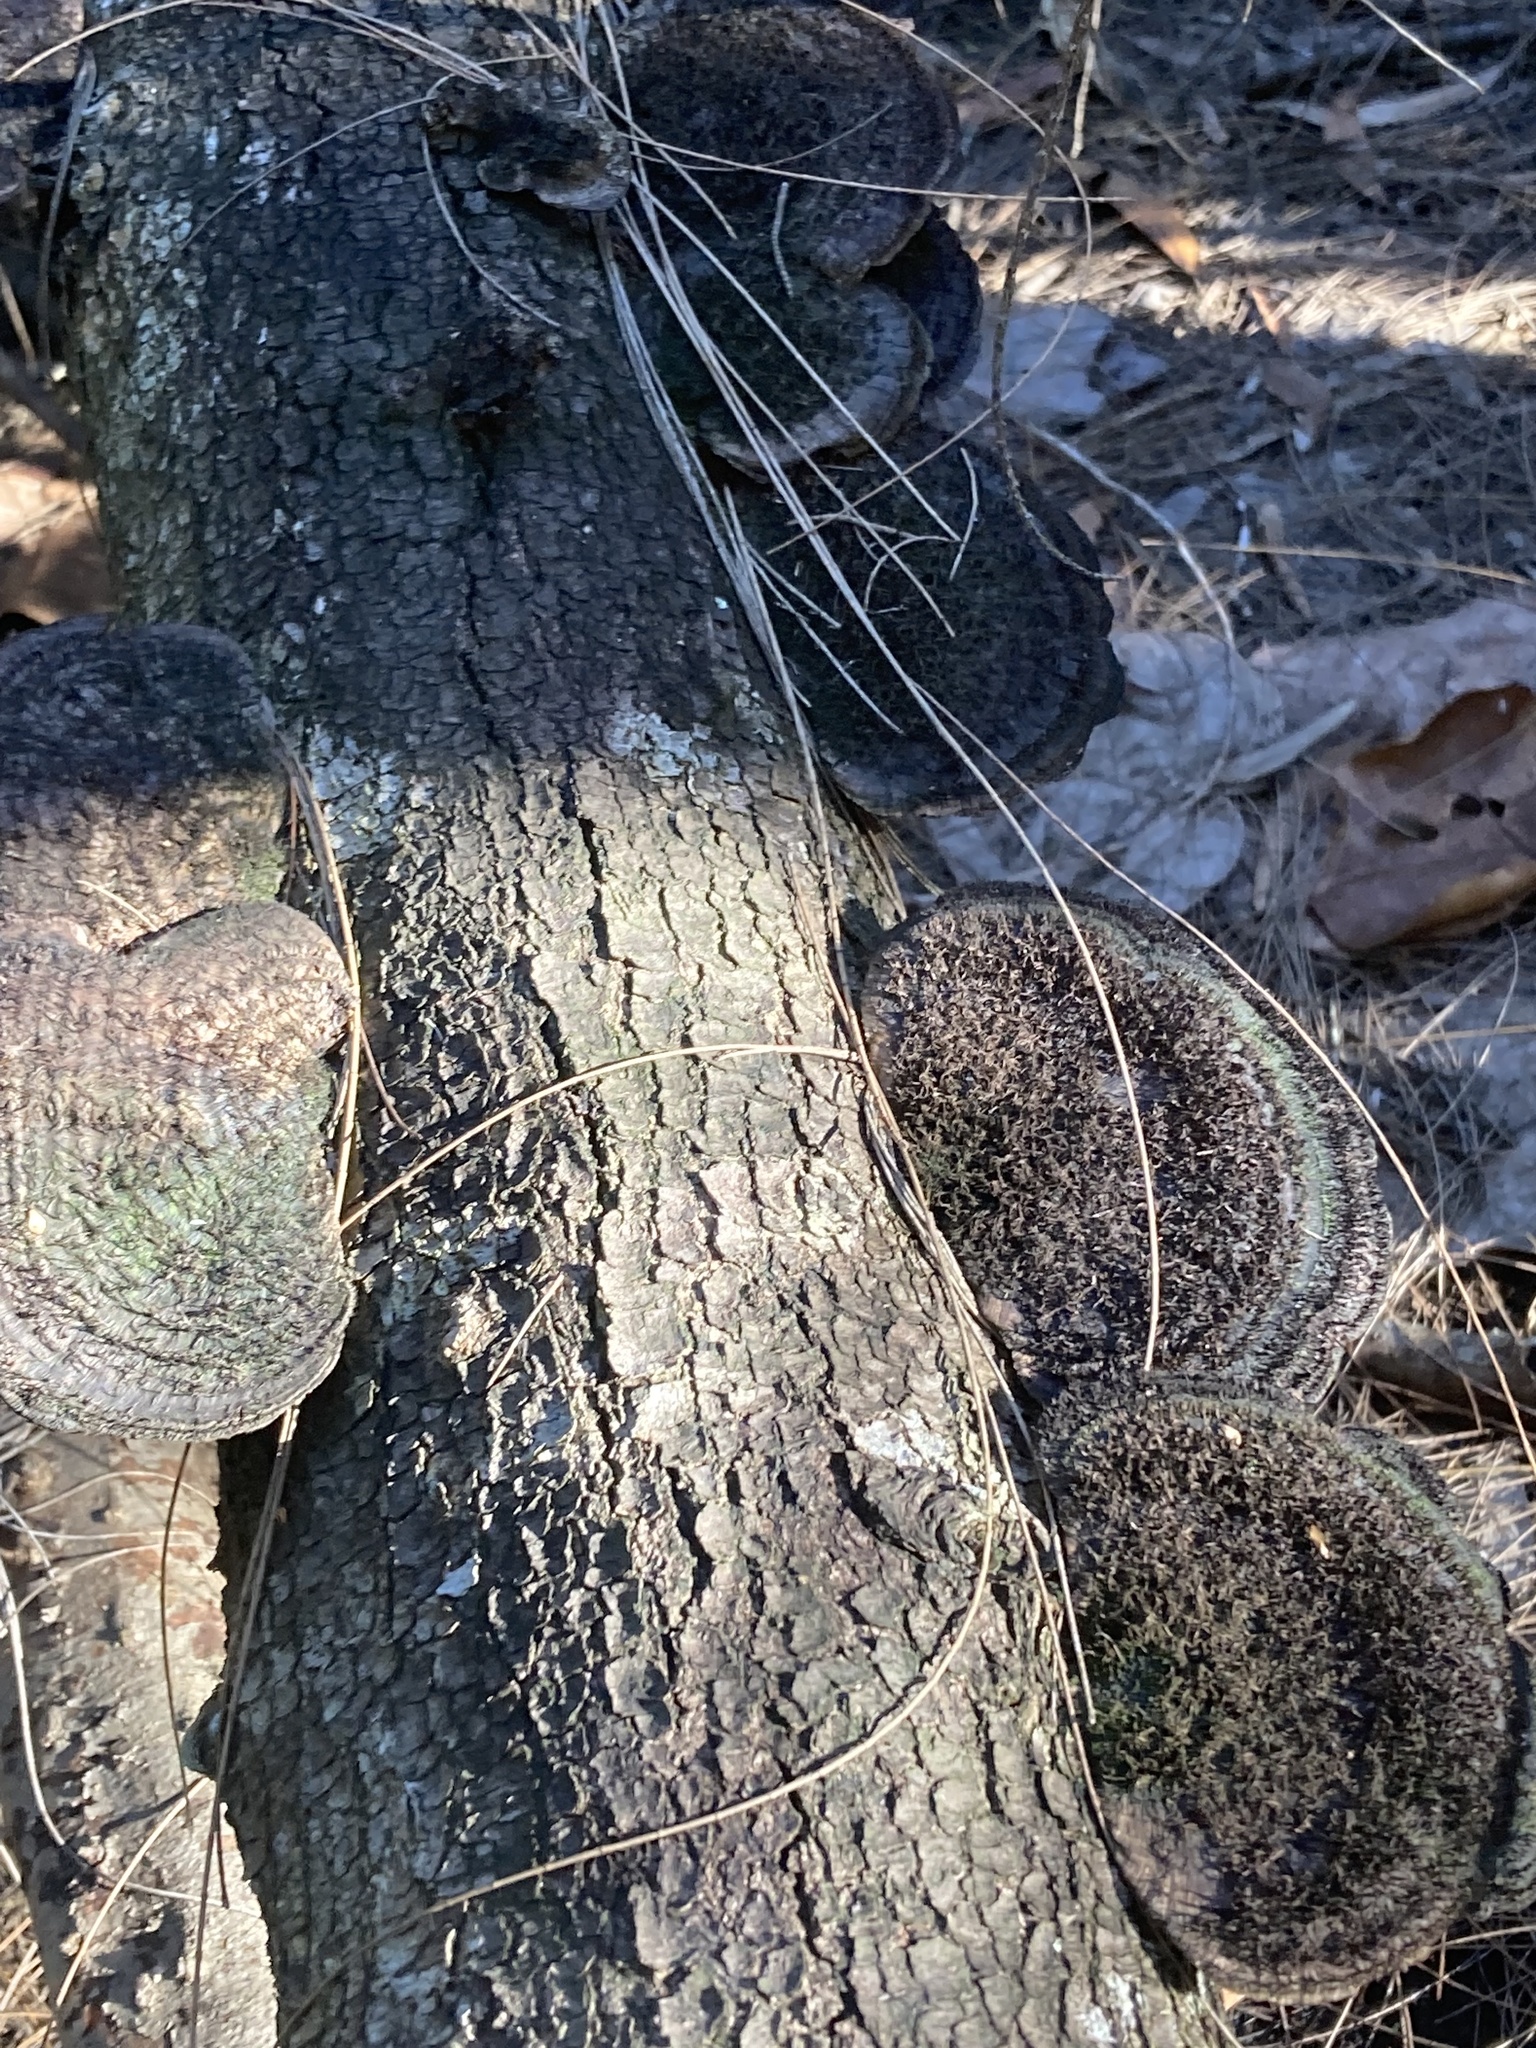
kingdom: Fungi
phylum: Basidiomycota
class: Agaricomycetes
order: Polyporales
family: Cerrenaceae
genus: Cerrena
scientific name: Cerrena hydnoides
